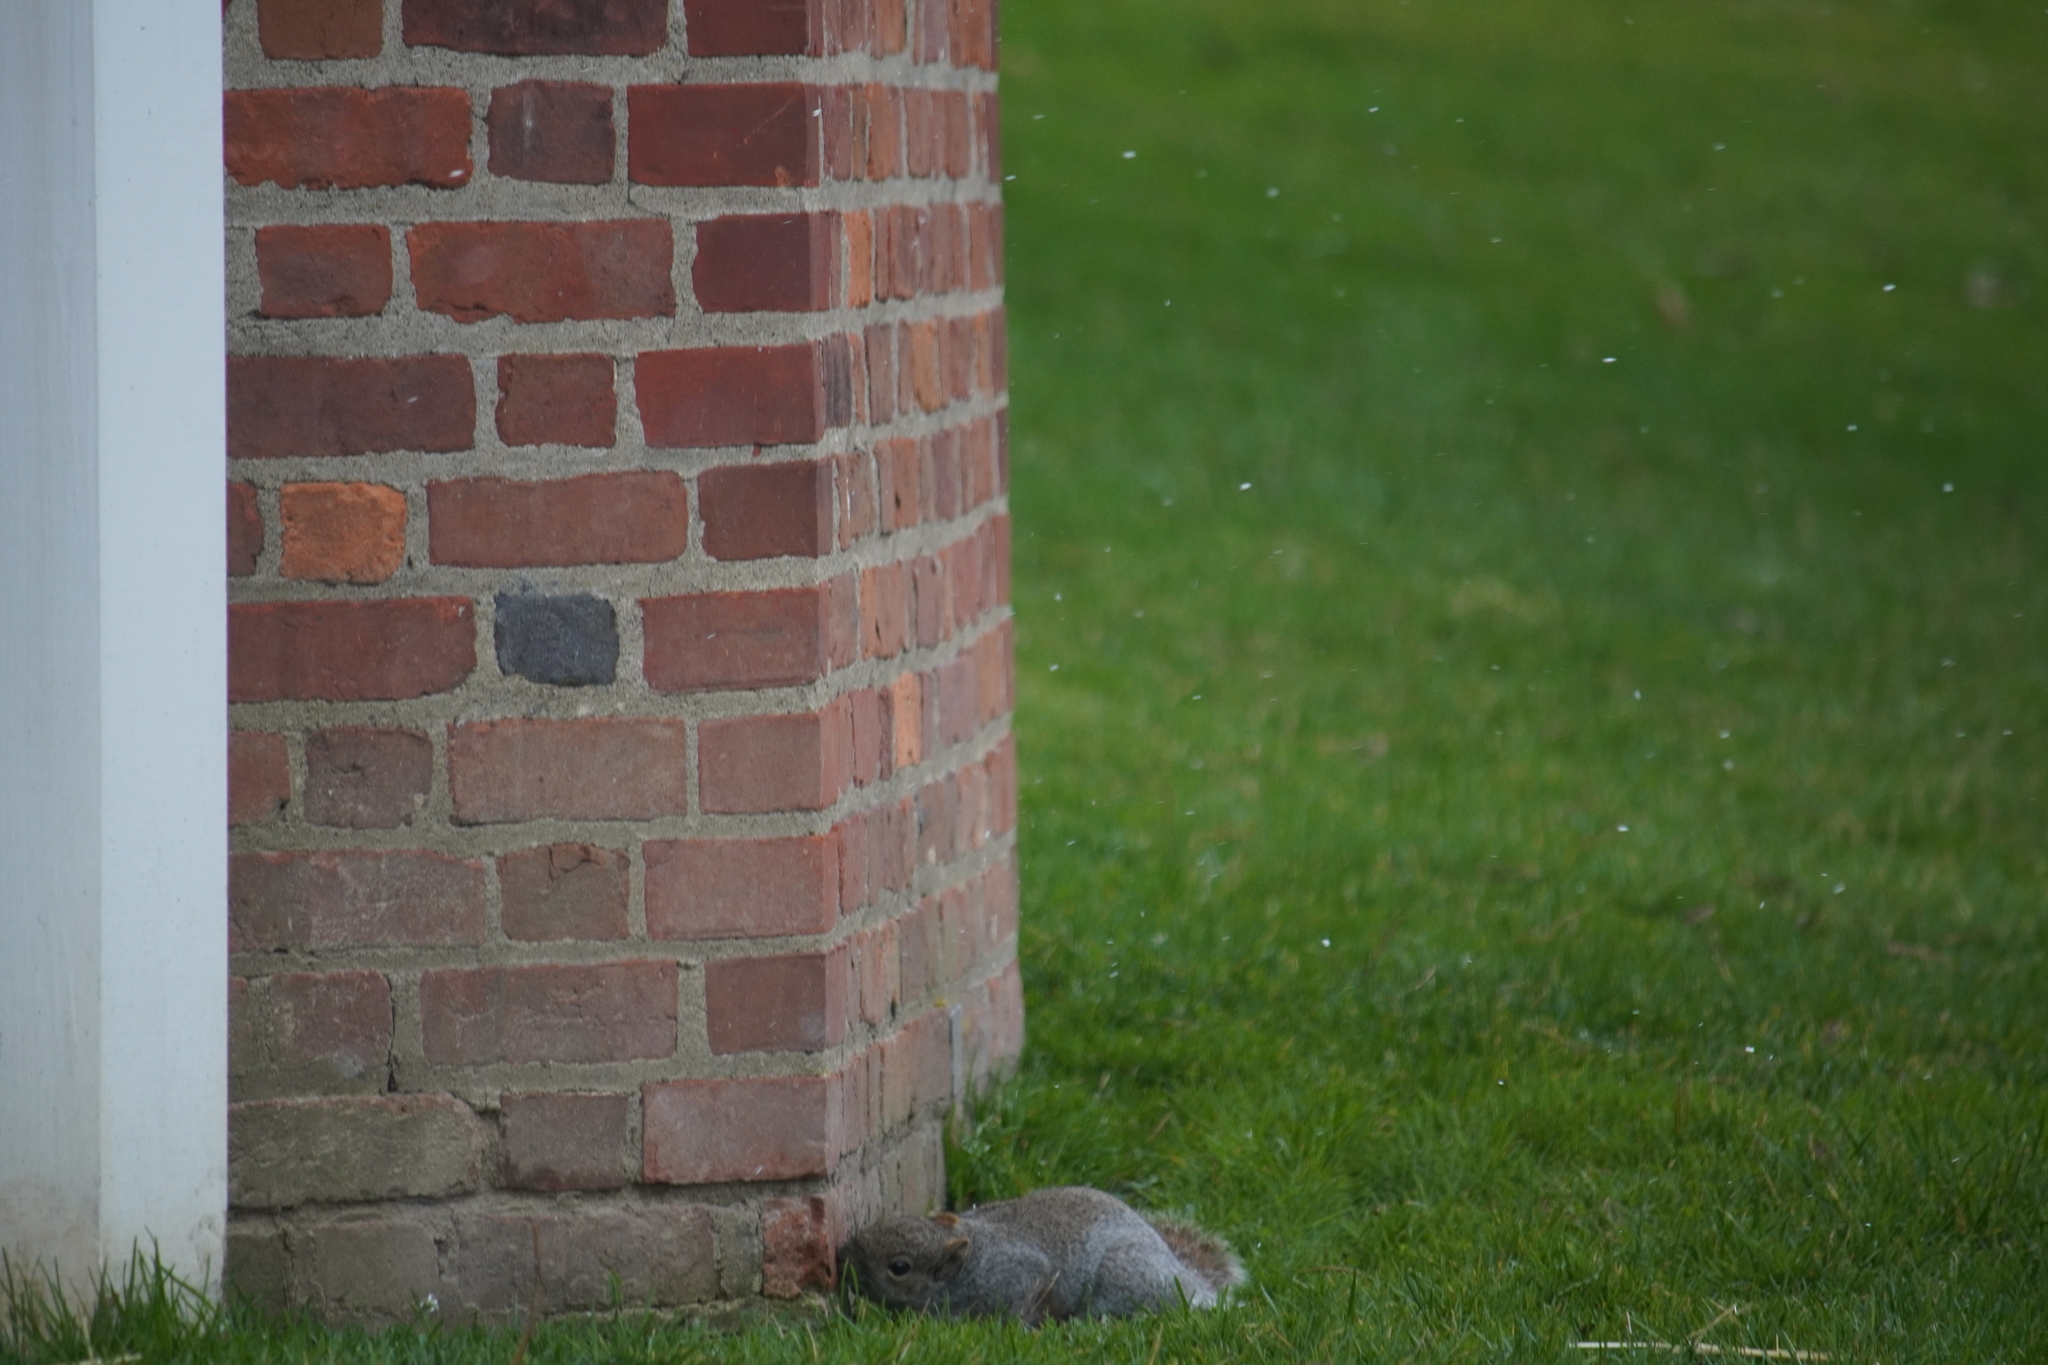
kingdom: Animalia
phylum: Chordata
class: Mammalia
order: Rodentia
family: Sciuridae
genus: Sciurus
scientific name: Sciurus carolinensis
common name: Eastern gray squirrel
